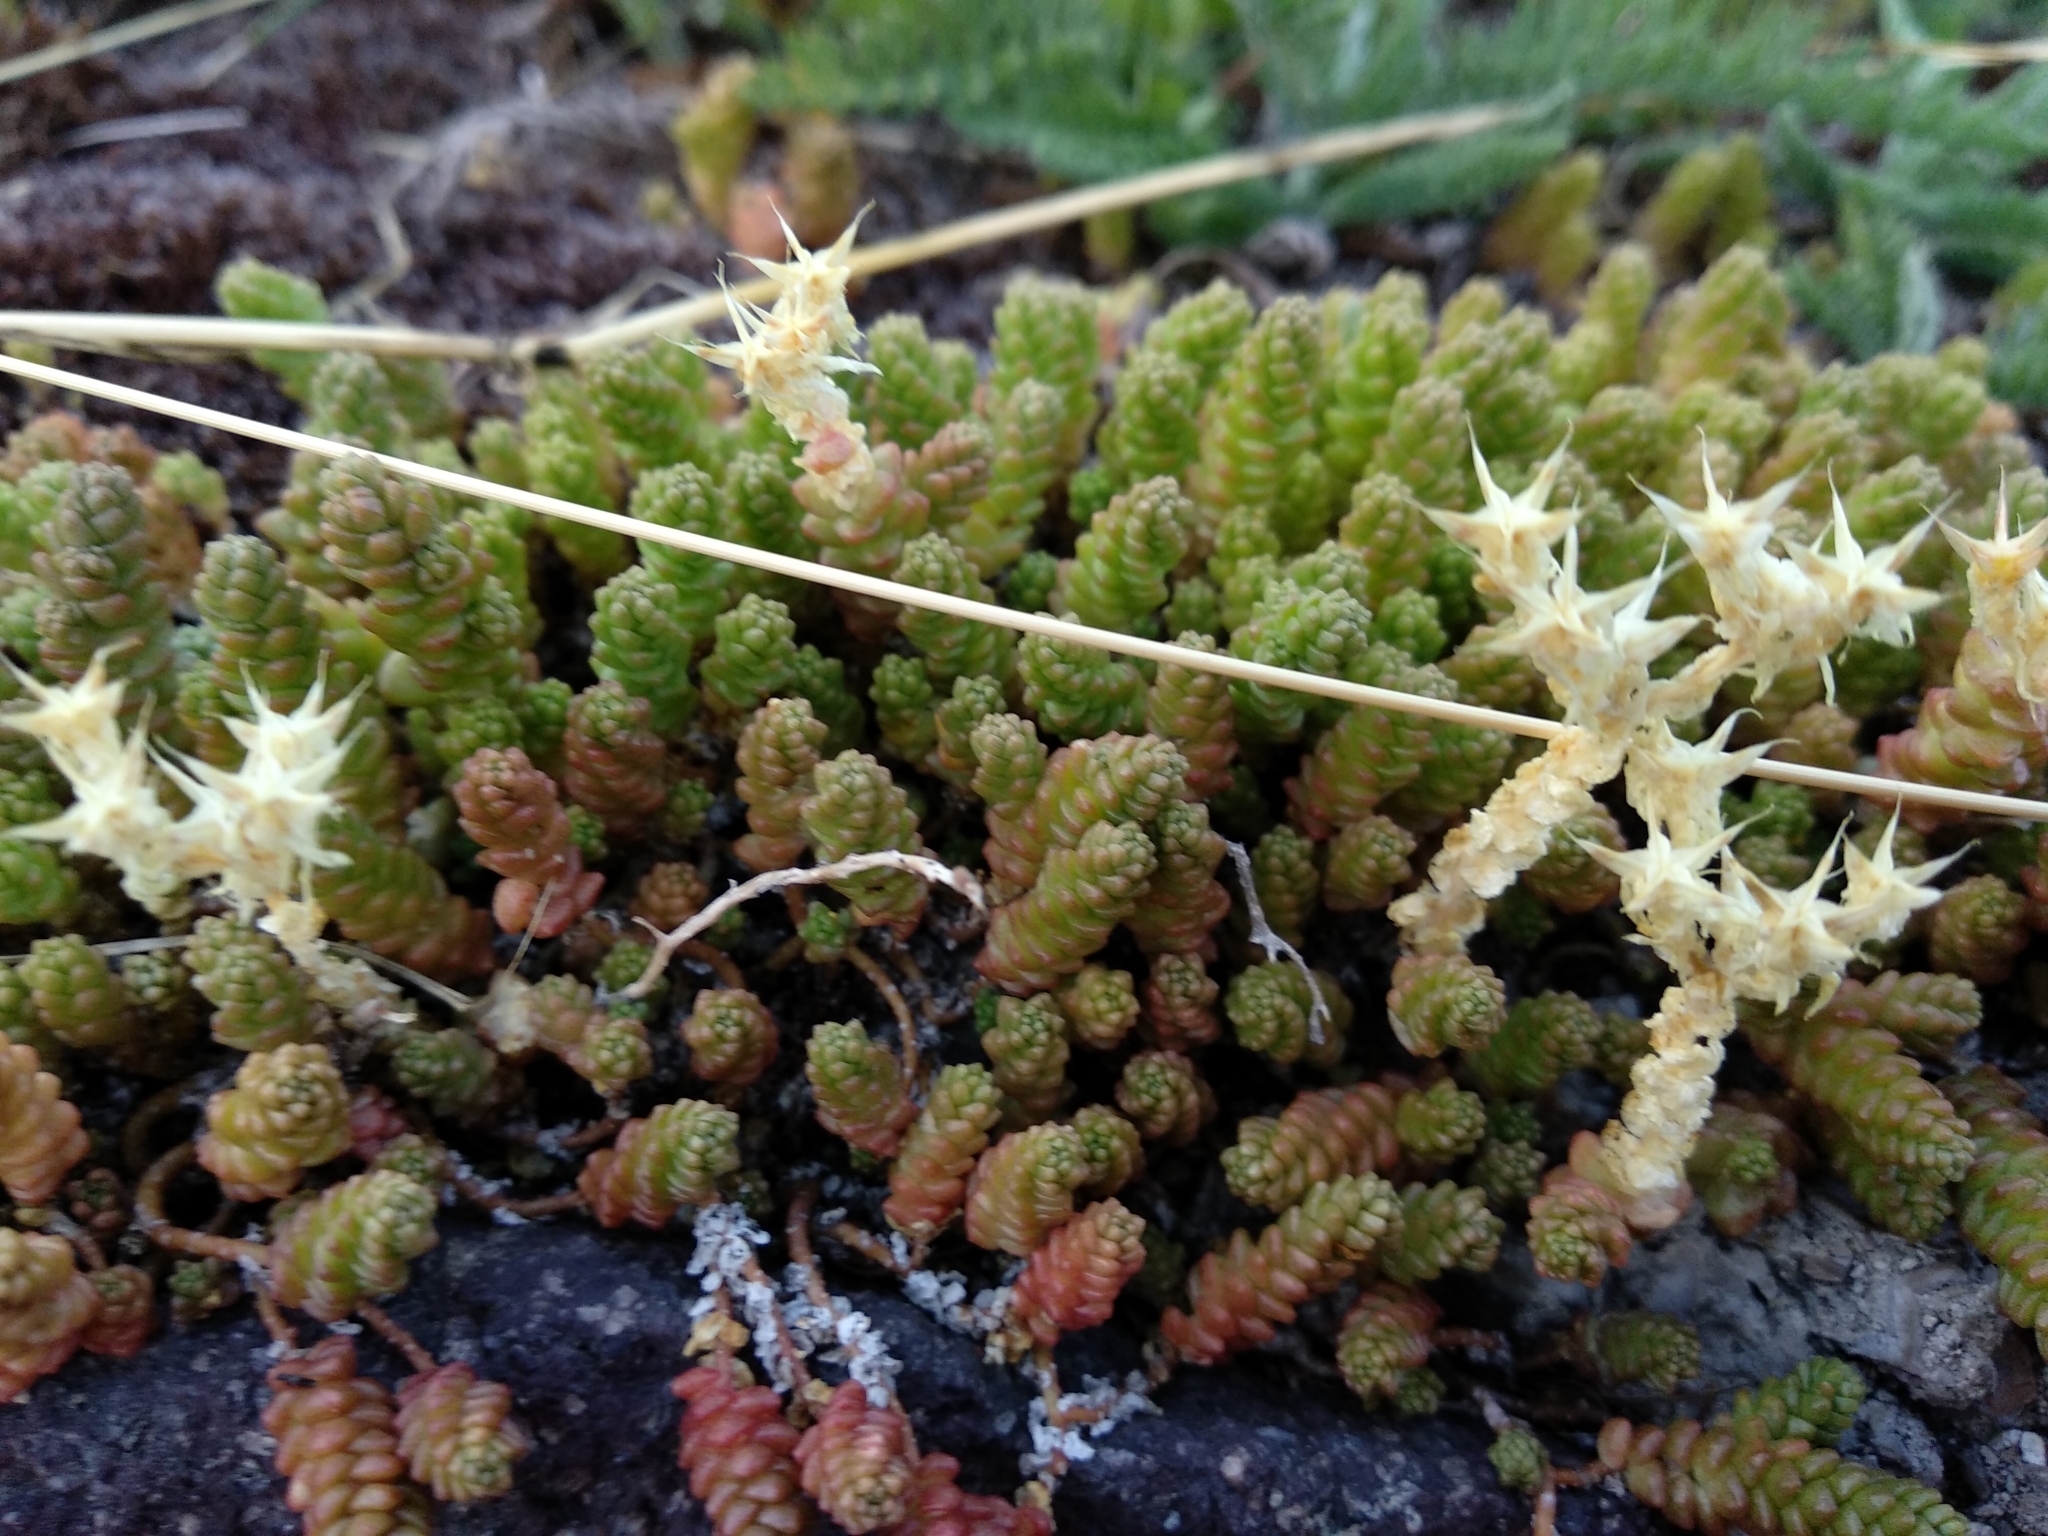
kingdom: Plantae
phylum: Tracheophyta
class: Magnoliopsida
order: Saxifragales
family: Crassulaceae
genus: Sedum
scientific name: Sedum acre
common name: Biting stonecrop
